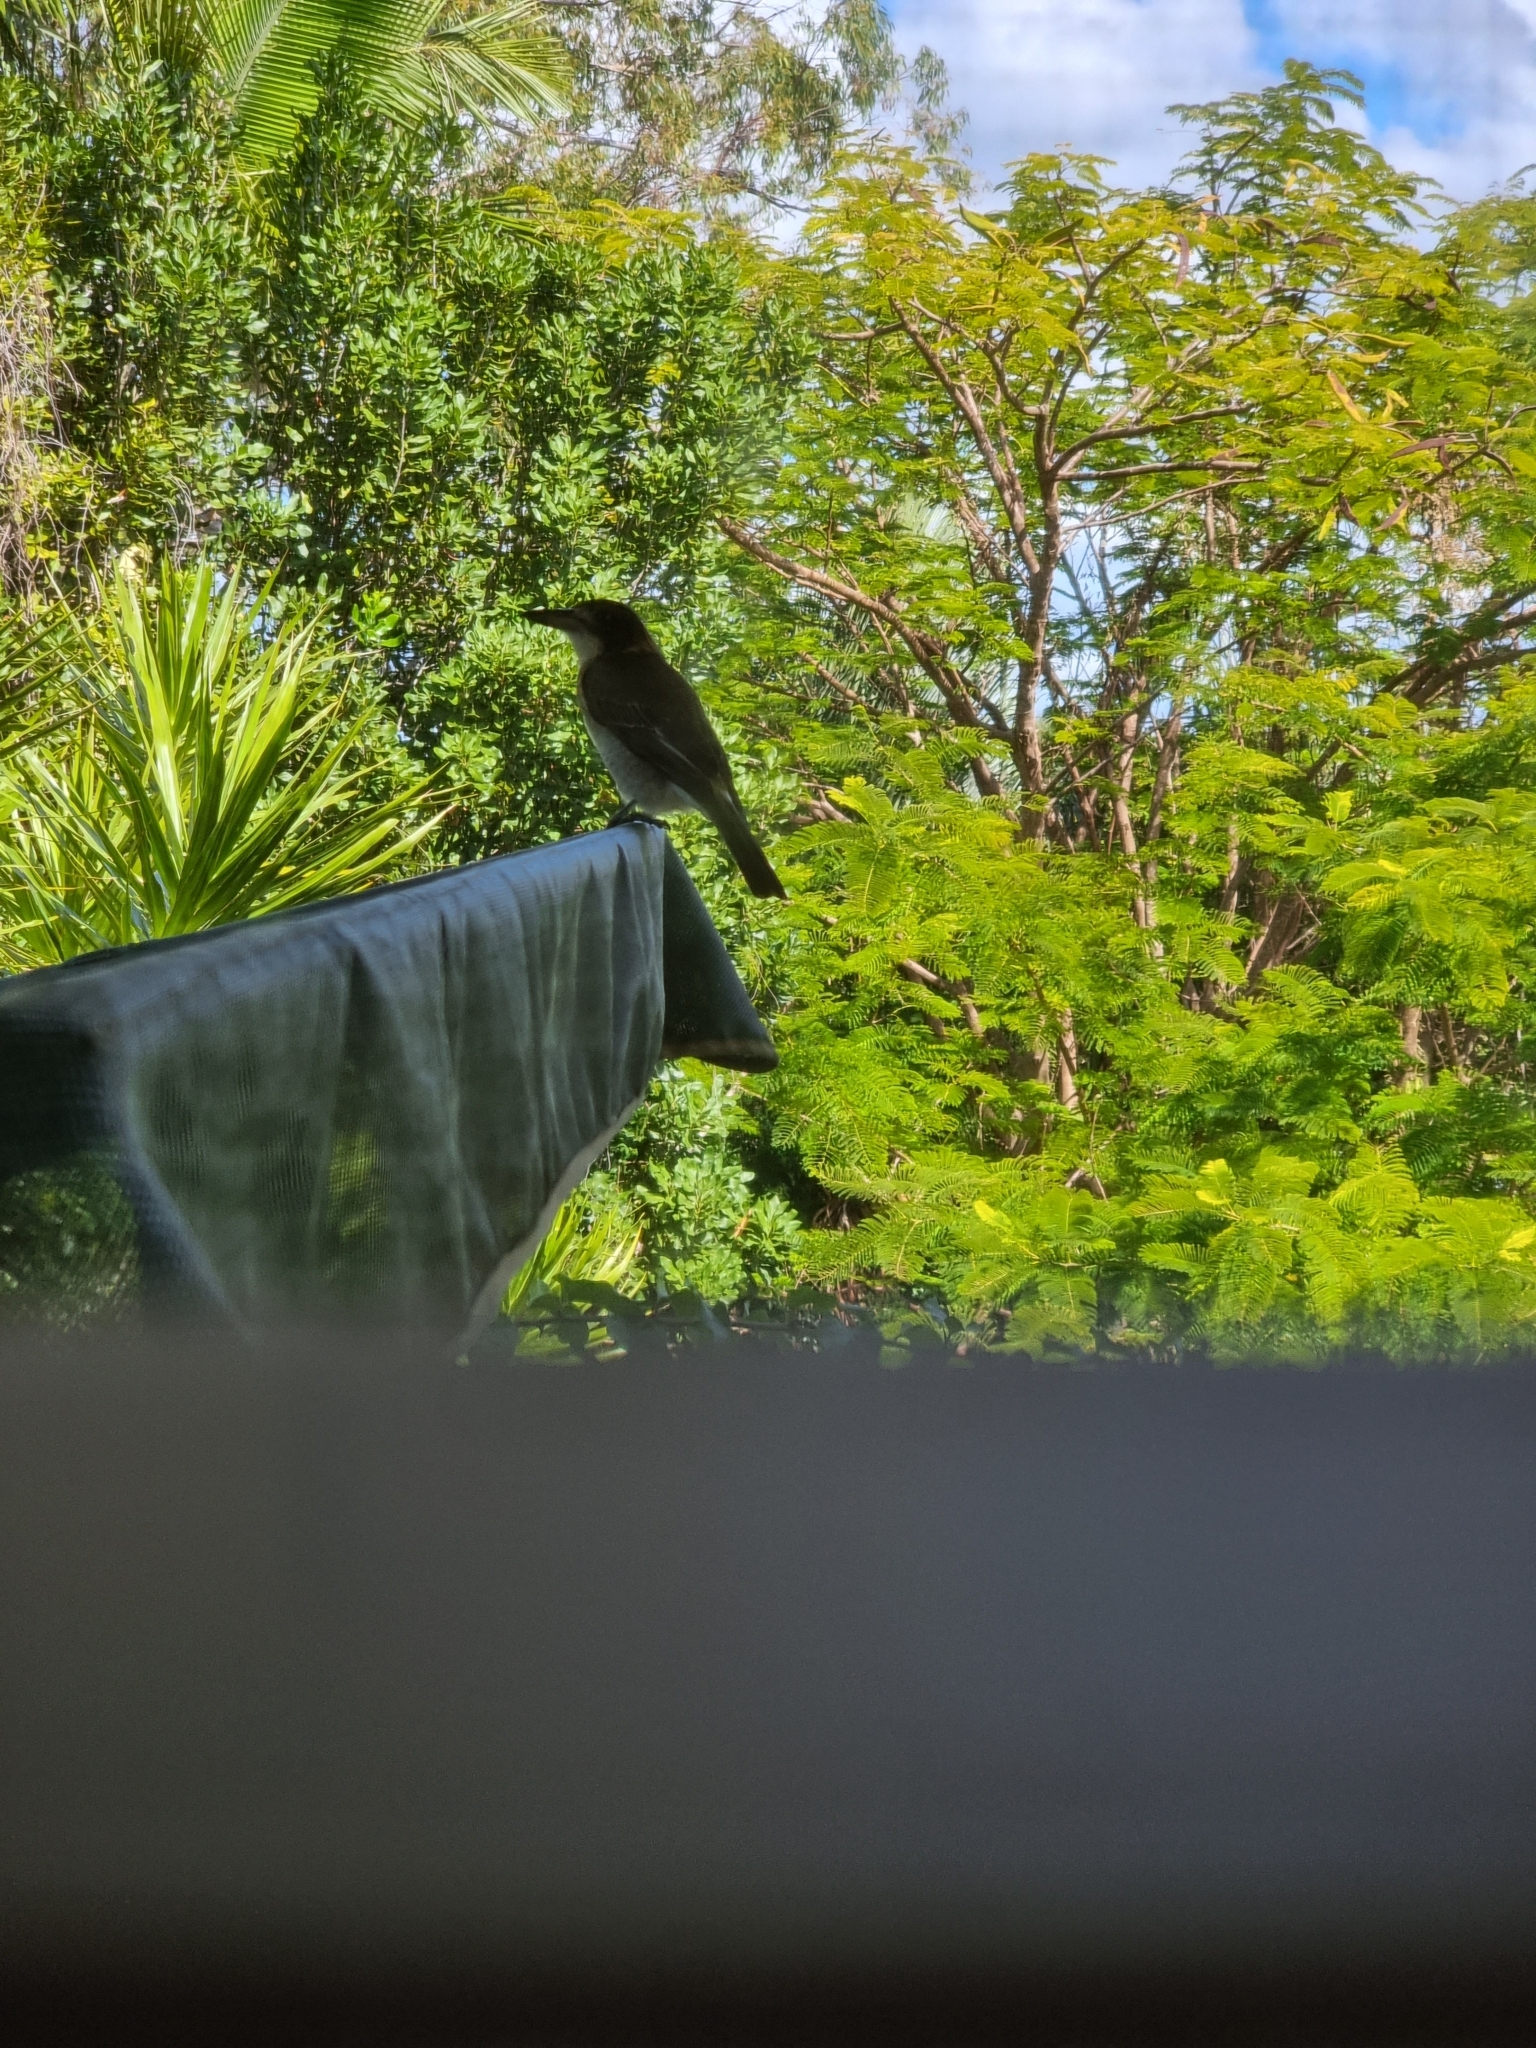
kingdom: Animalia
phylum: Chordata
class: Aves
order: Passeriformes
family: Cracticidae
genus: Cracticus
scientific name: Cracticus torquatus
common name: Grey butcherbird
